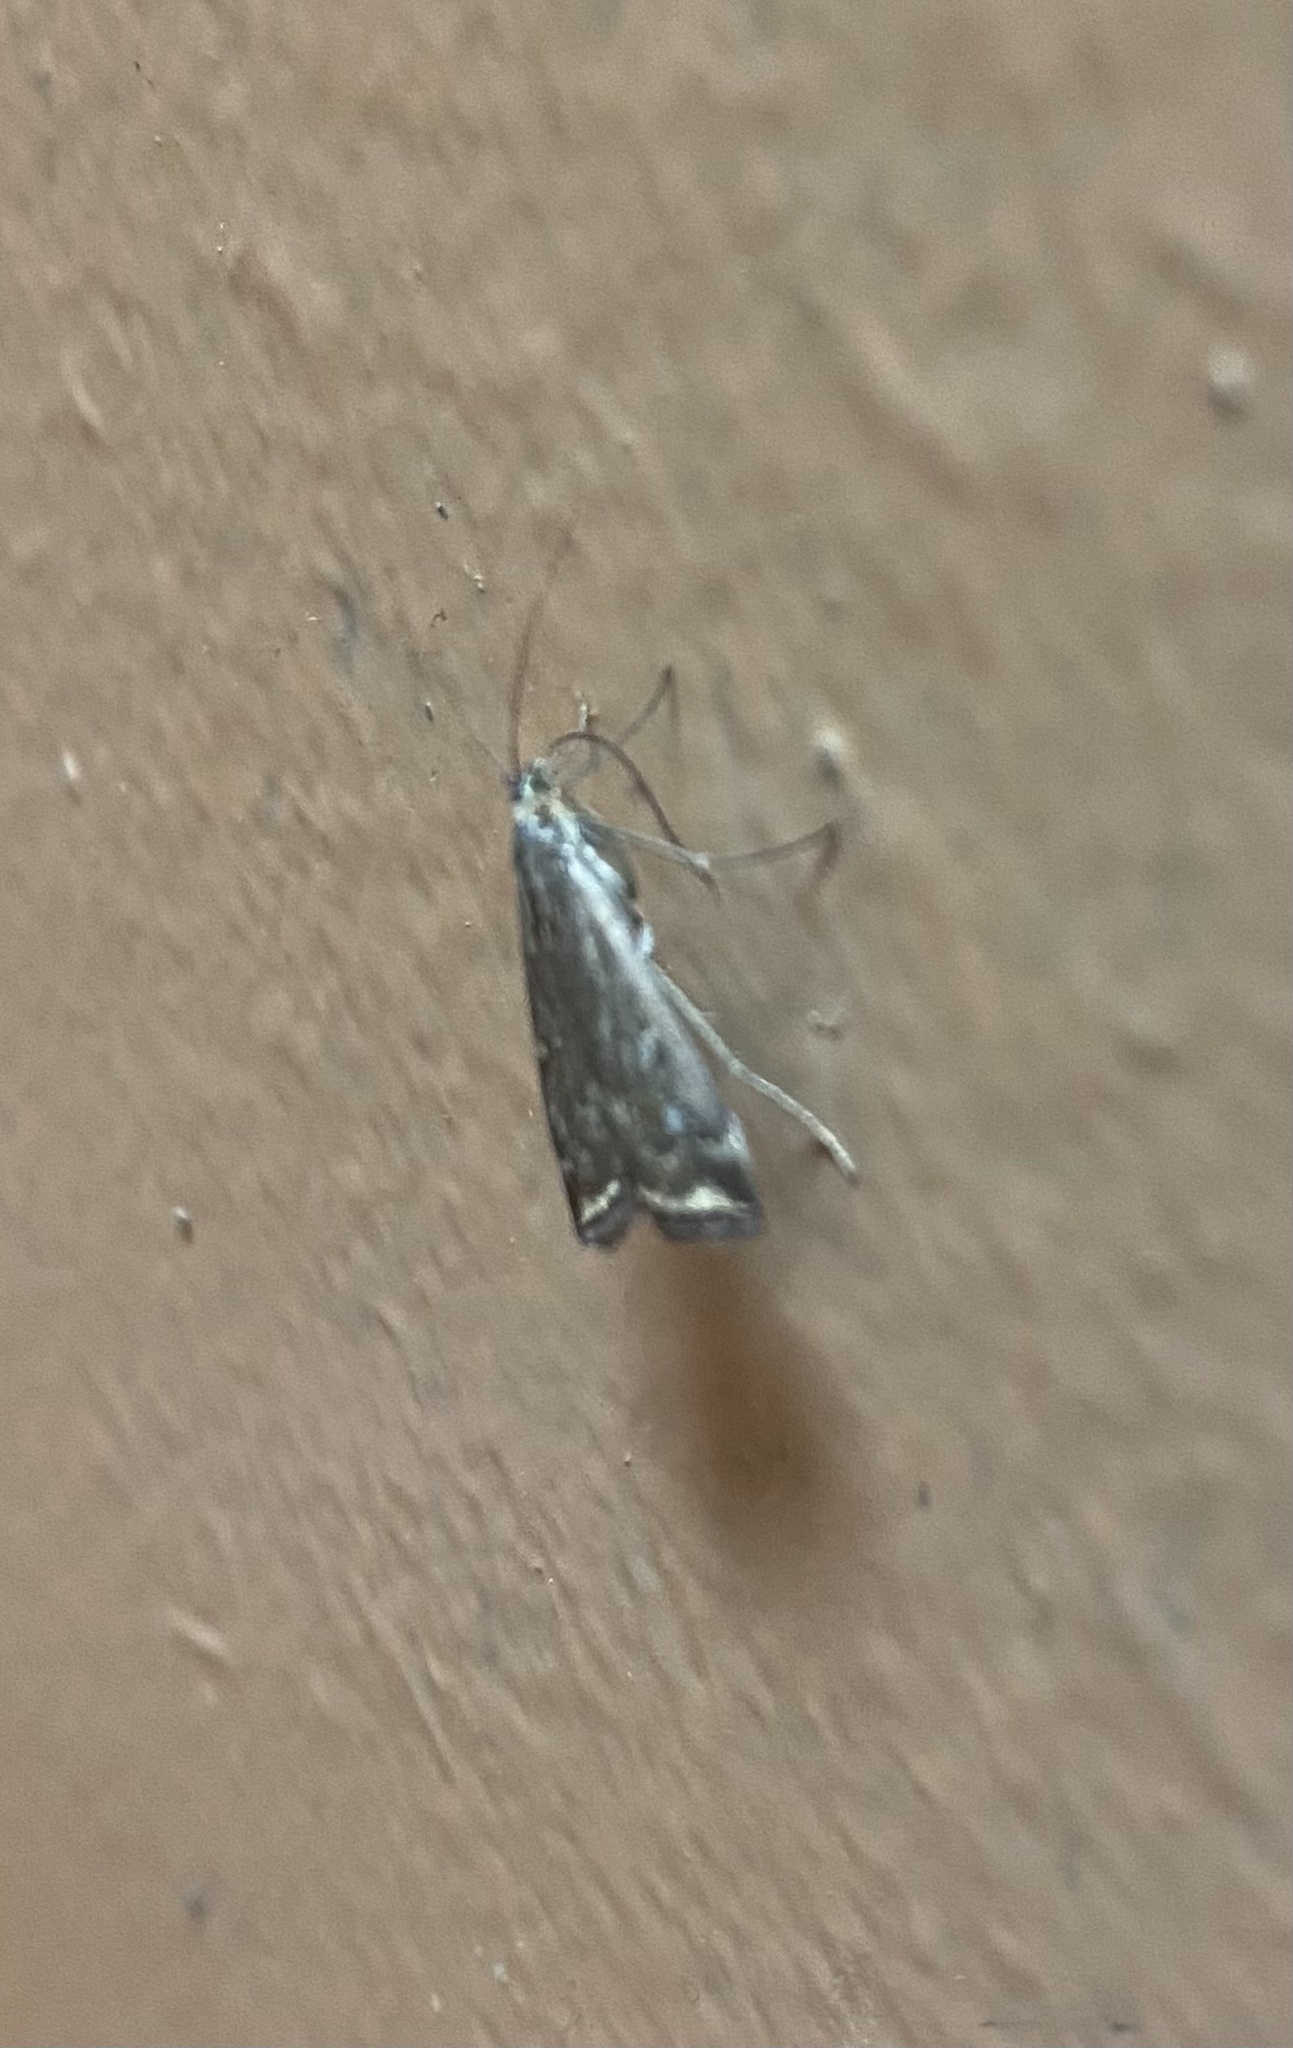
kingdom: Animalia
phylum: Arthropoda
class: Insecta
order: Lepidoptera
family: Crambidae
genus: Loxostege
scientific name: Loxostege sticticalis
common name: Crambid moth
